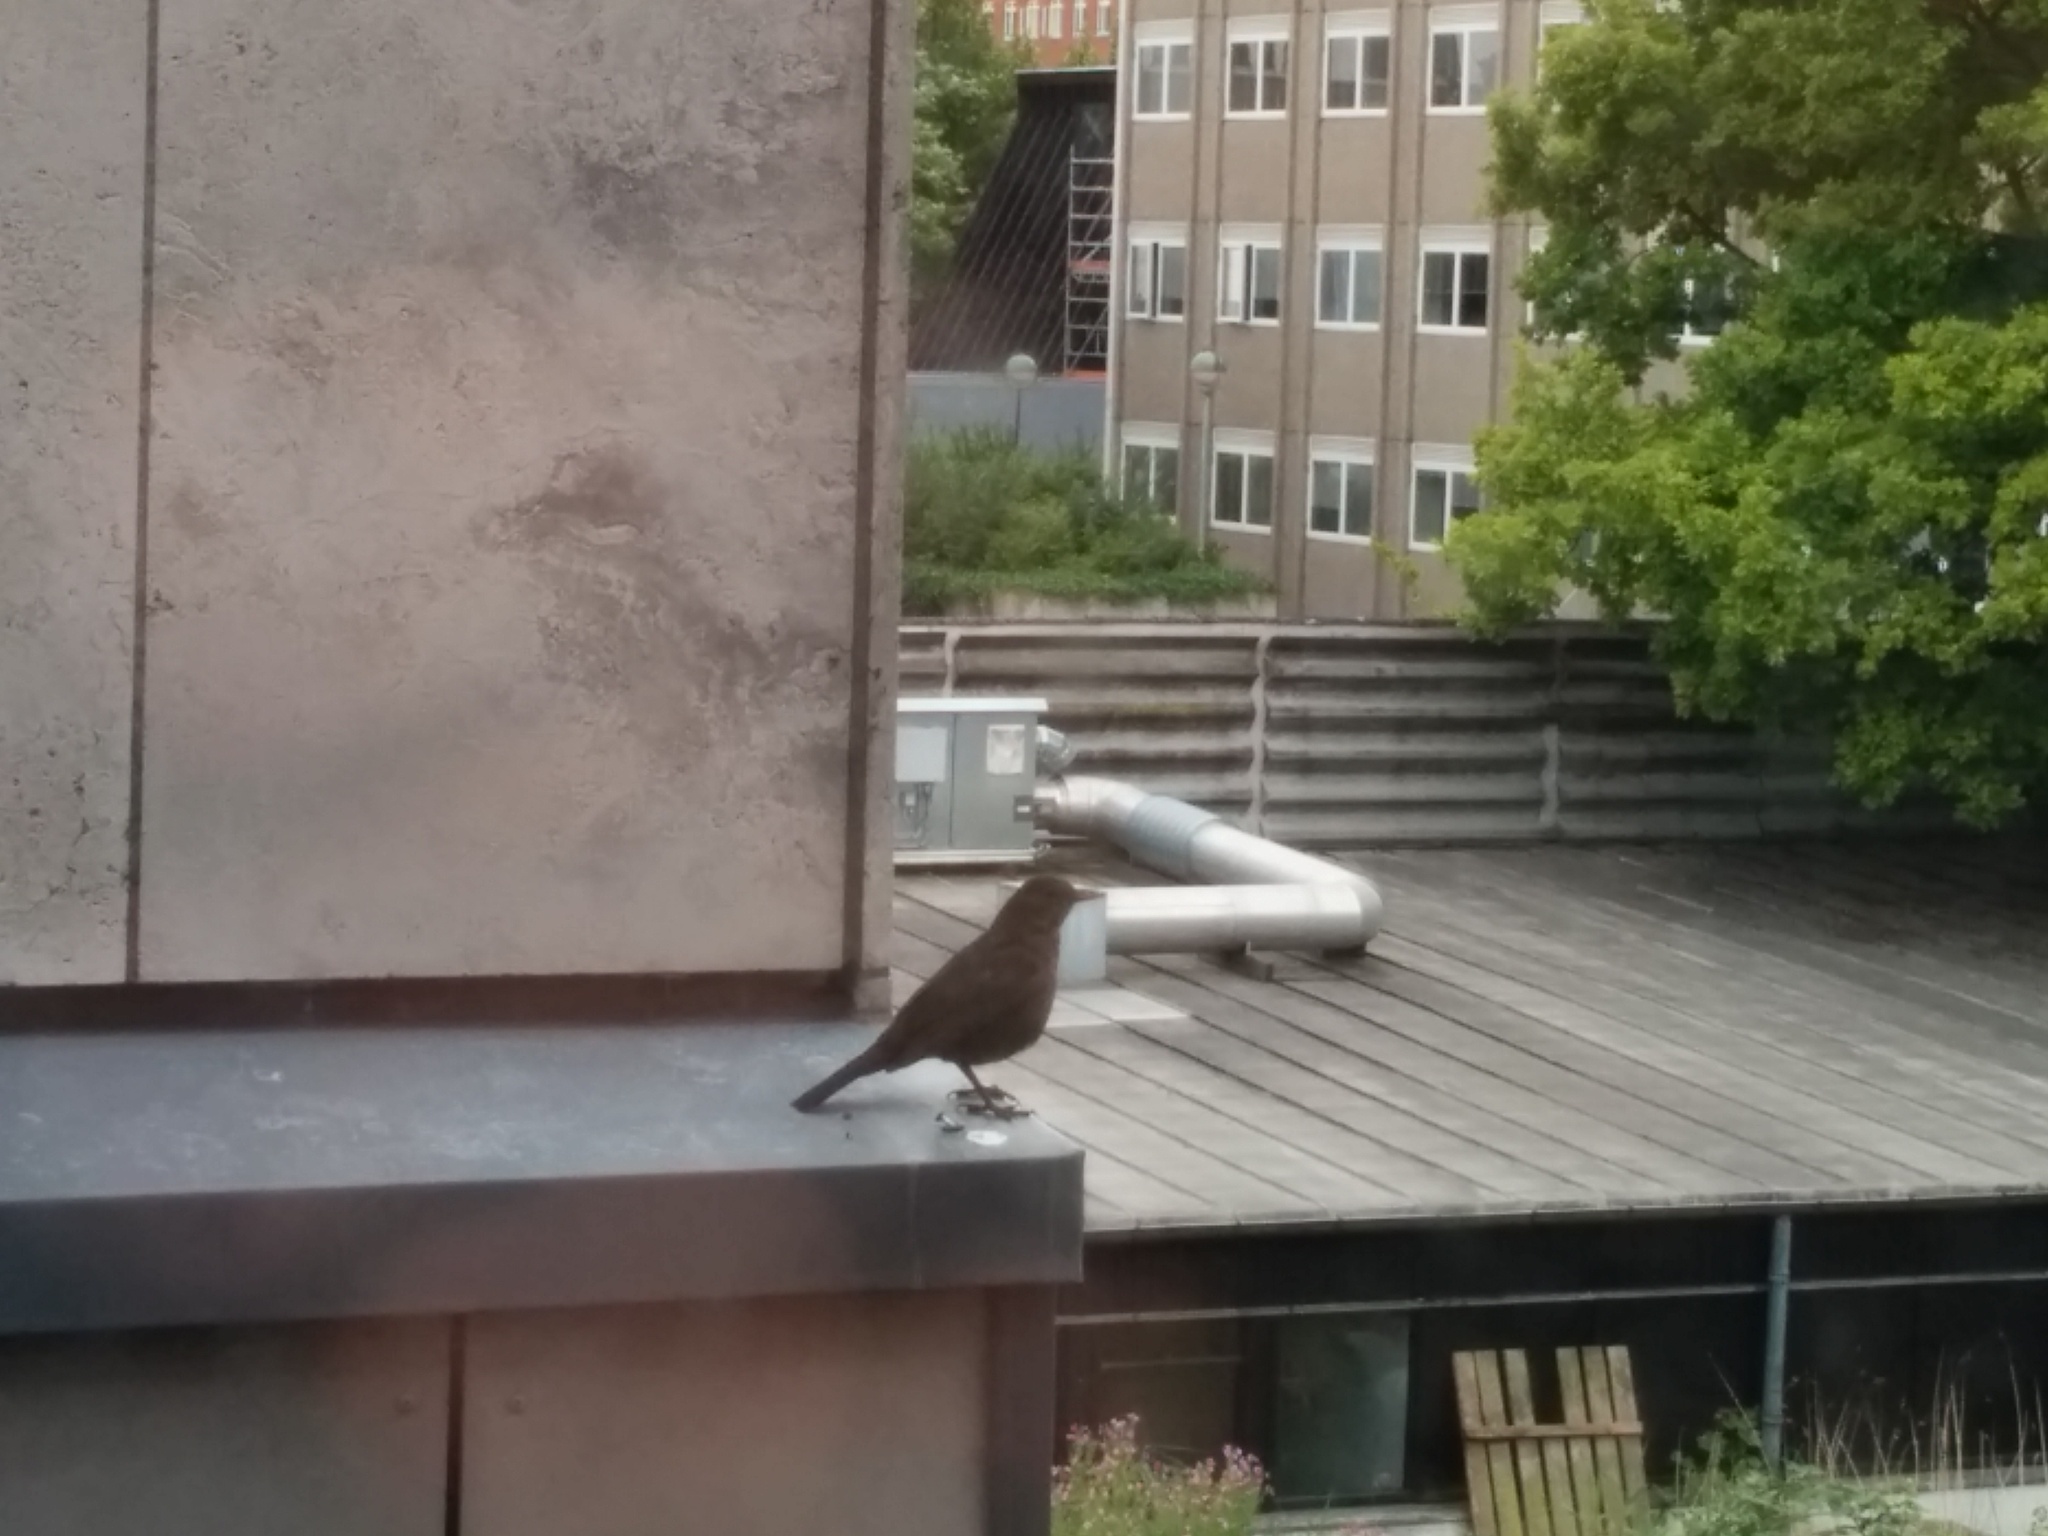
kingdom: Animalia
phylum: Chordata
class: Aves
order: Passeriformes
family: Turdidae
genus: Turdus
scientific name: Turdus merula
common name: Common blackbird
